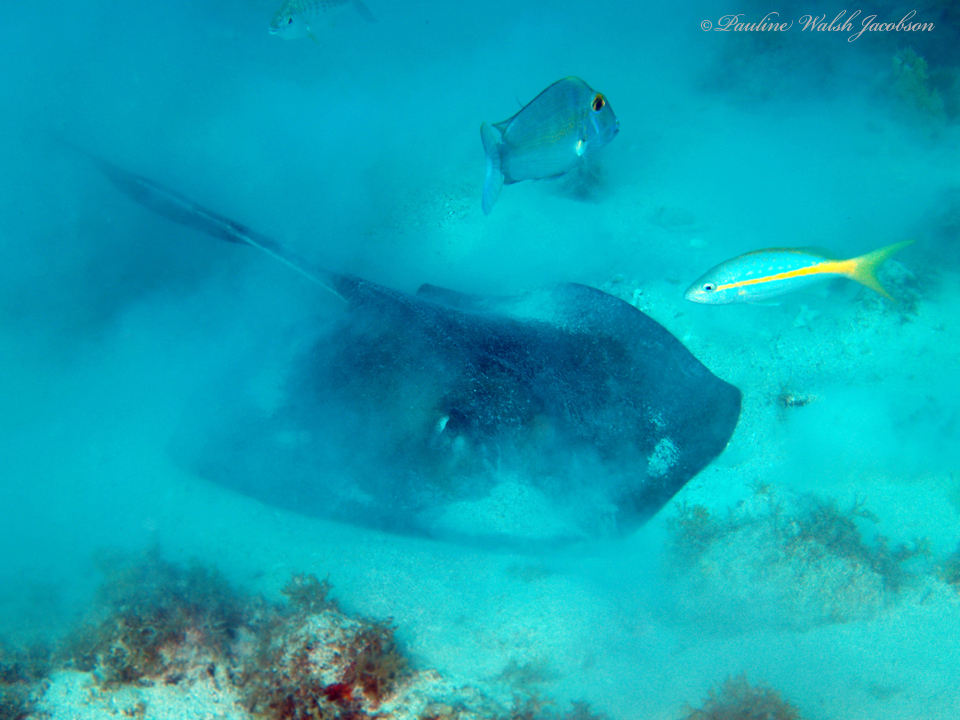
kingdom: Animalia
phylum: Chordata
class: Elasmobranchii
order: Myliobatiformes
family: Dasyatidae
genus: Hypanus
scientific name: Hypanus americanus
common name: Southern stingray
